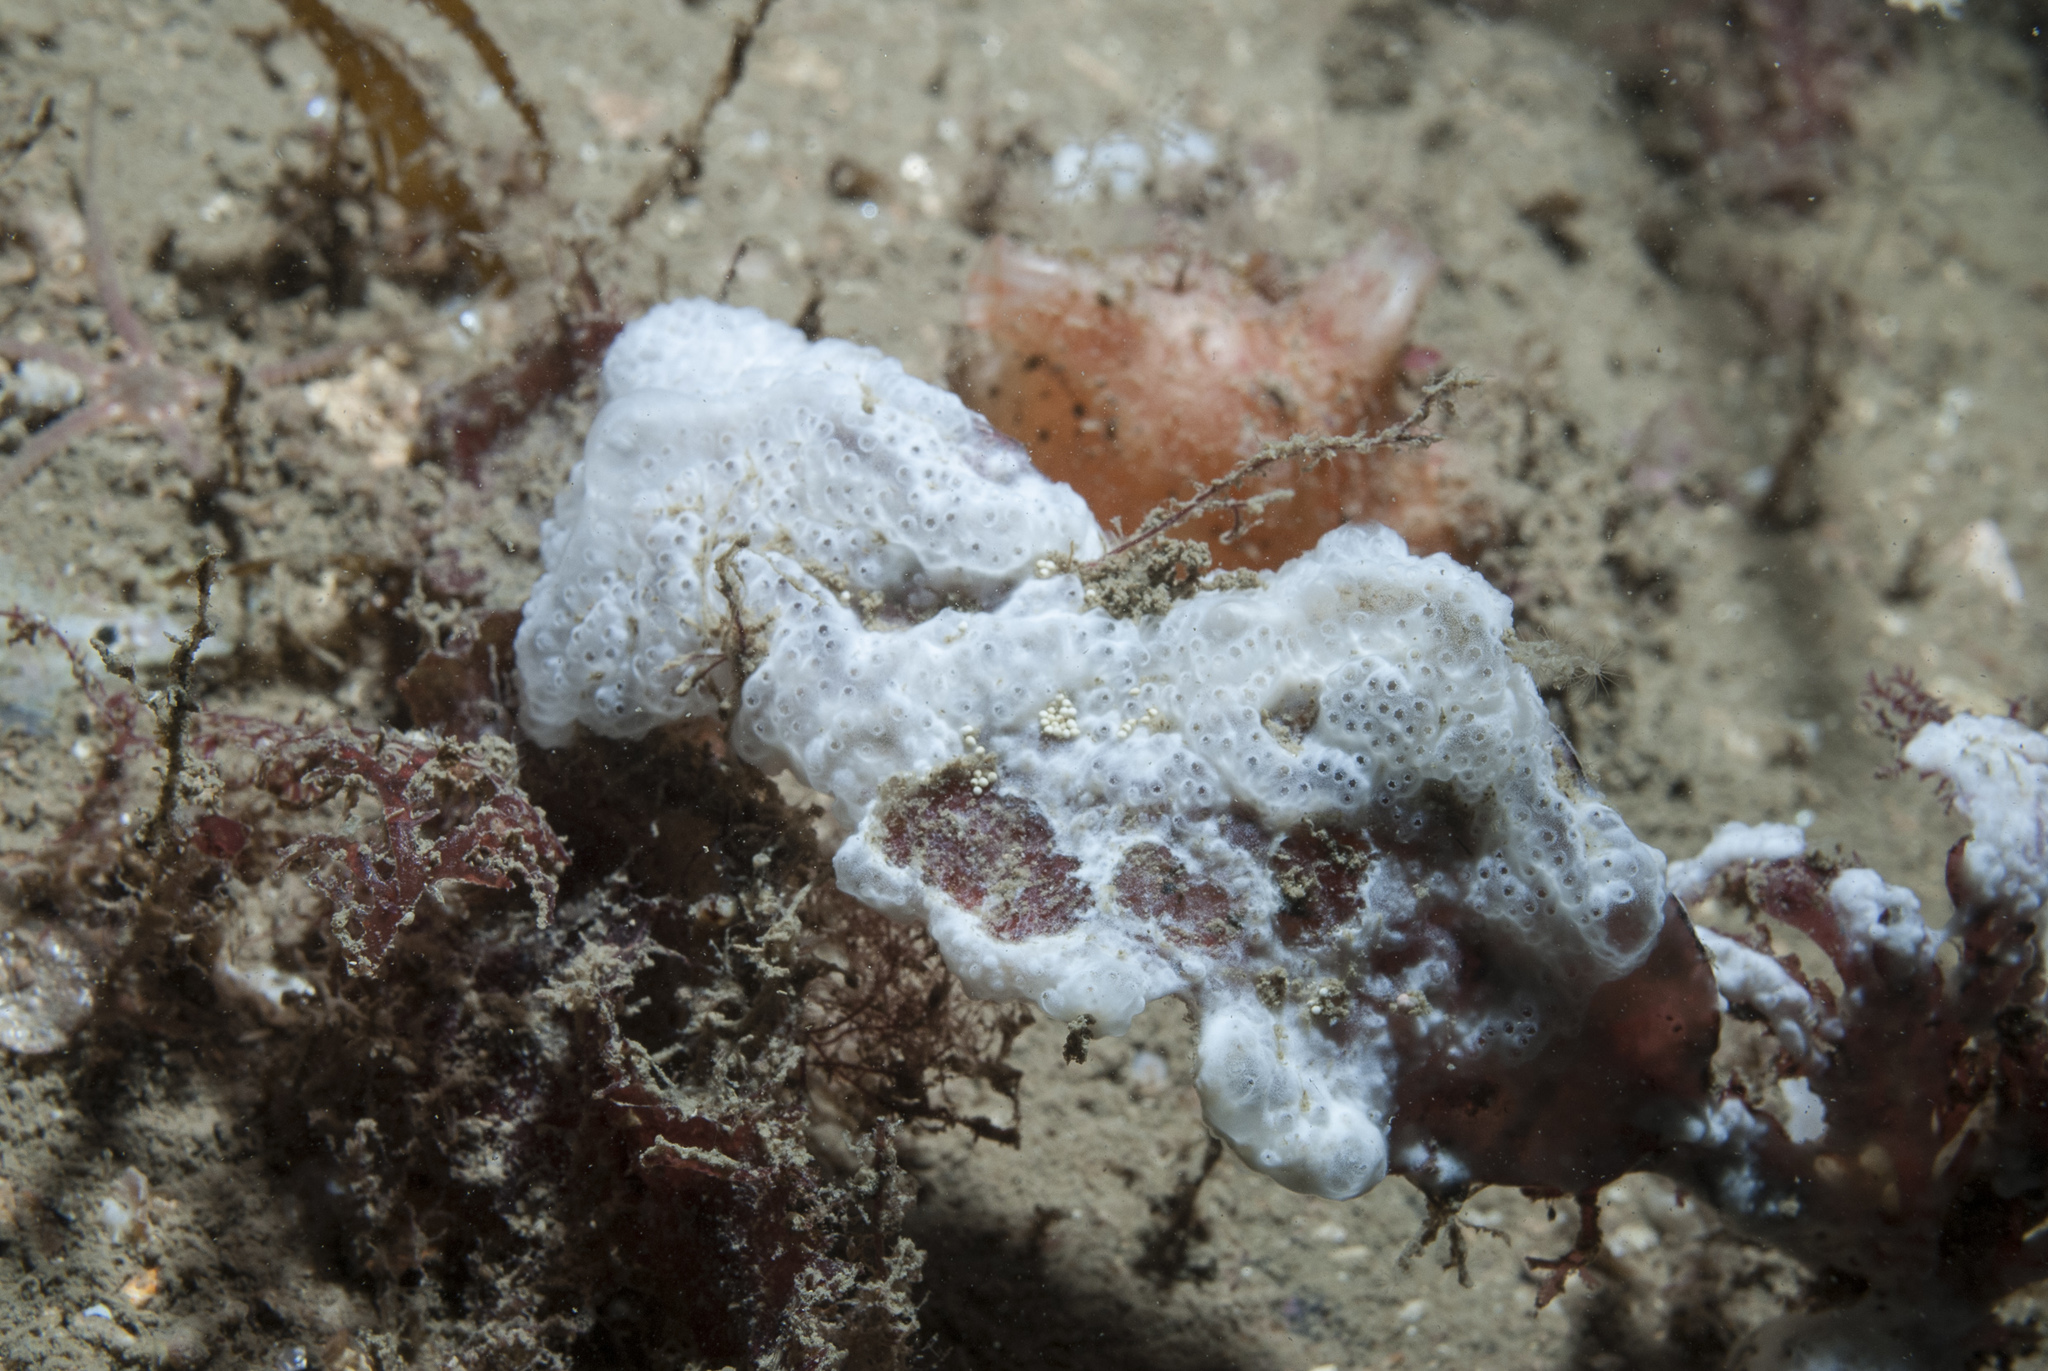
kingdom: Animalia
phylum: Chordata
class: Ascidiacea
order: Aplousobranchia
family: Didemnidae
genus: Trididemnum
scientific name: Trididemnum cereum
